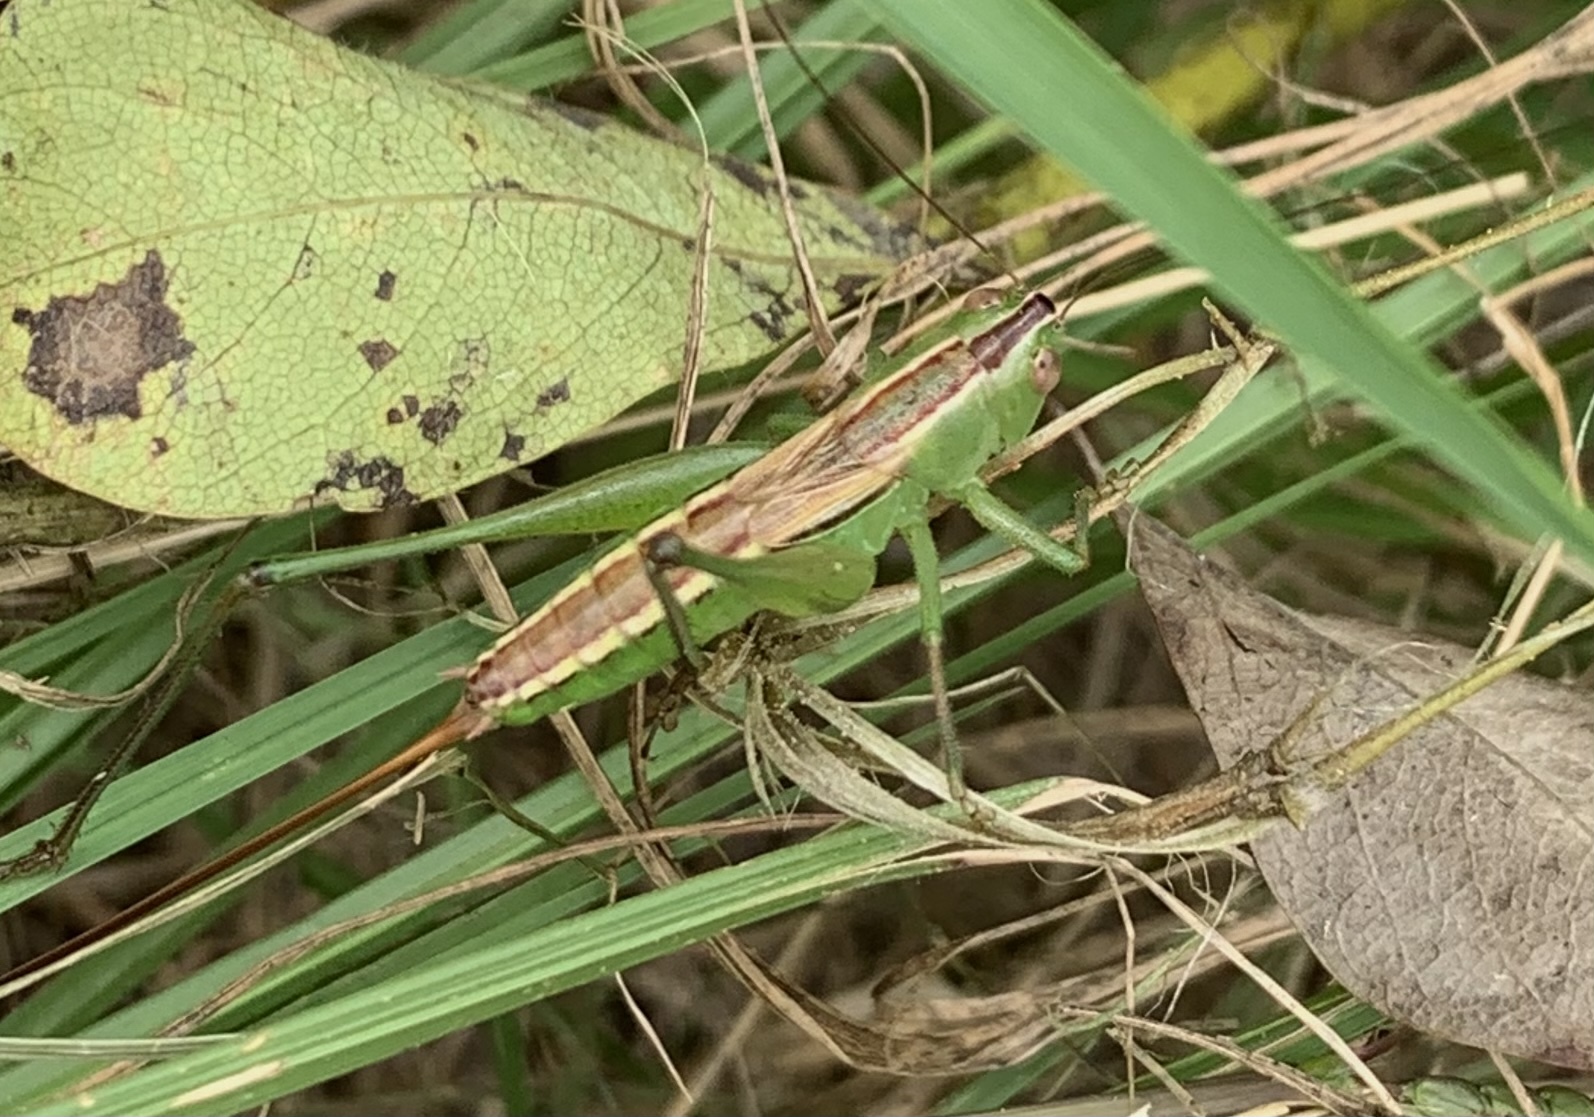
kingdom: Animalia
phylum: Arthropoda
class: Insecta
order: Orthoptera
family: Tettigoniidae
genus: Conocephalus
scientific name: Conocephalus strictus
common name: Straight-lanced katydid
